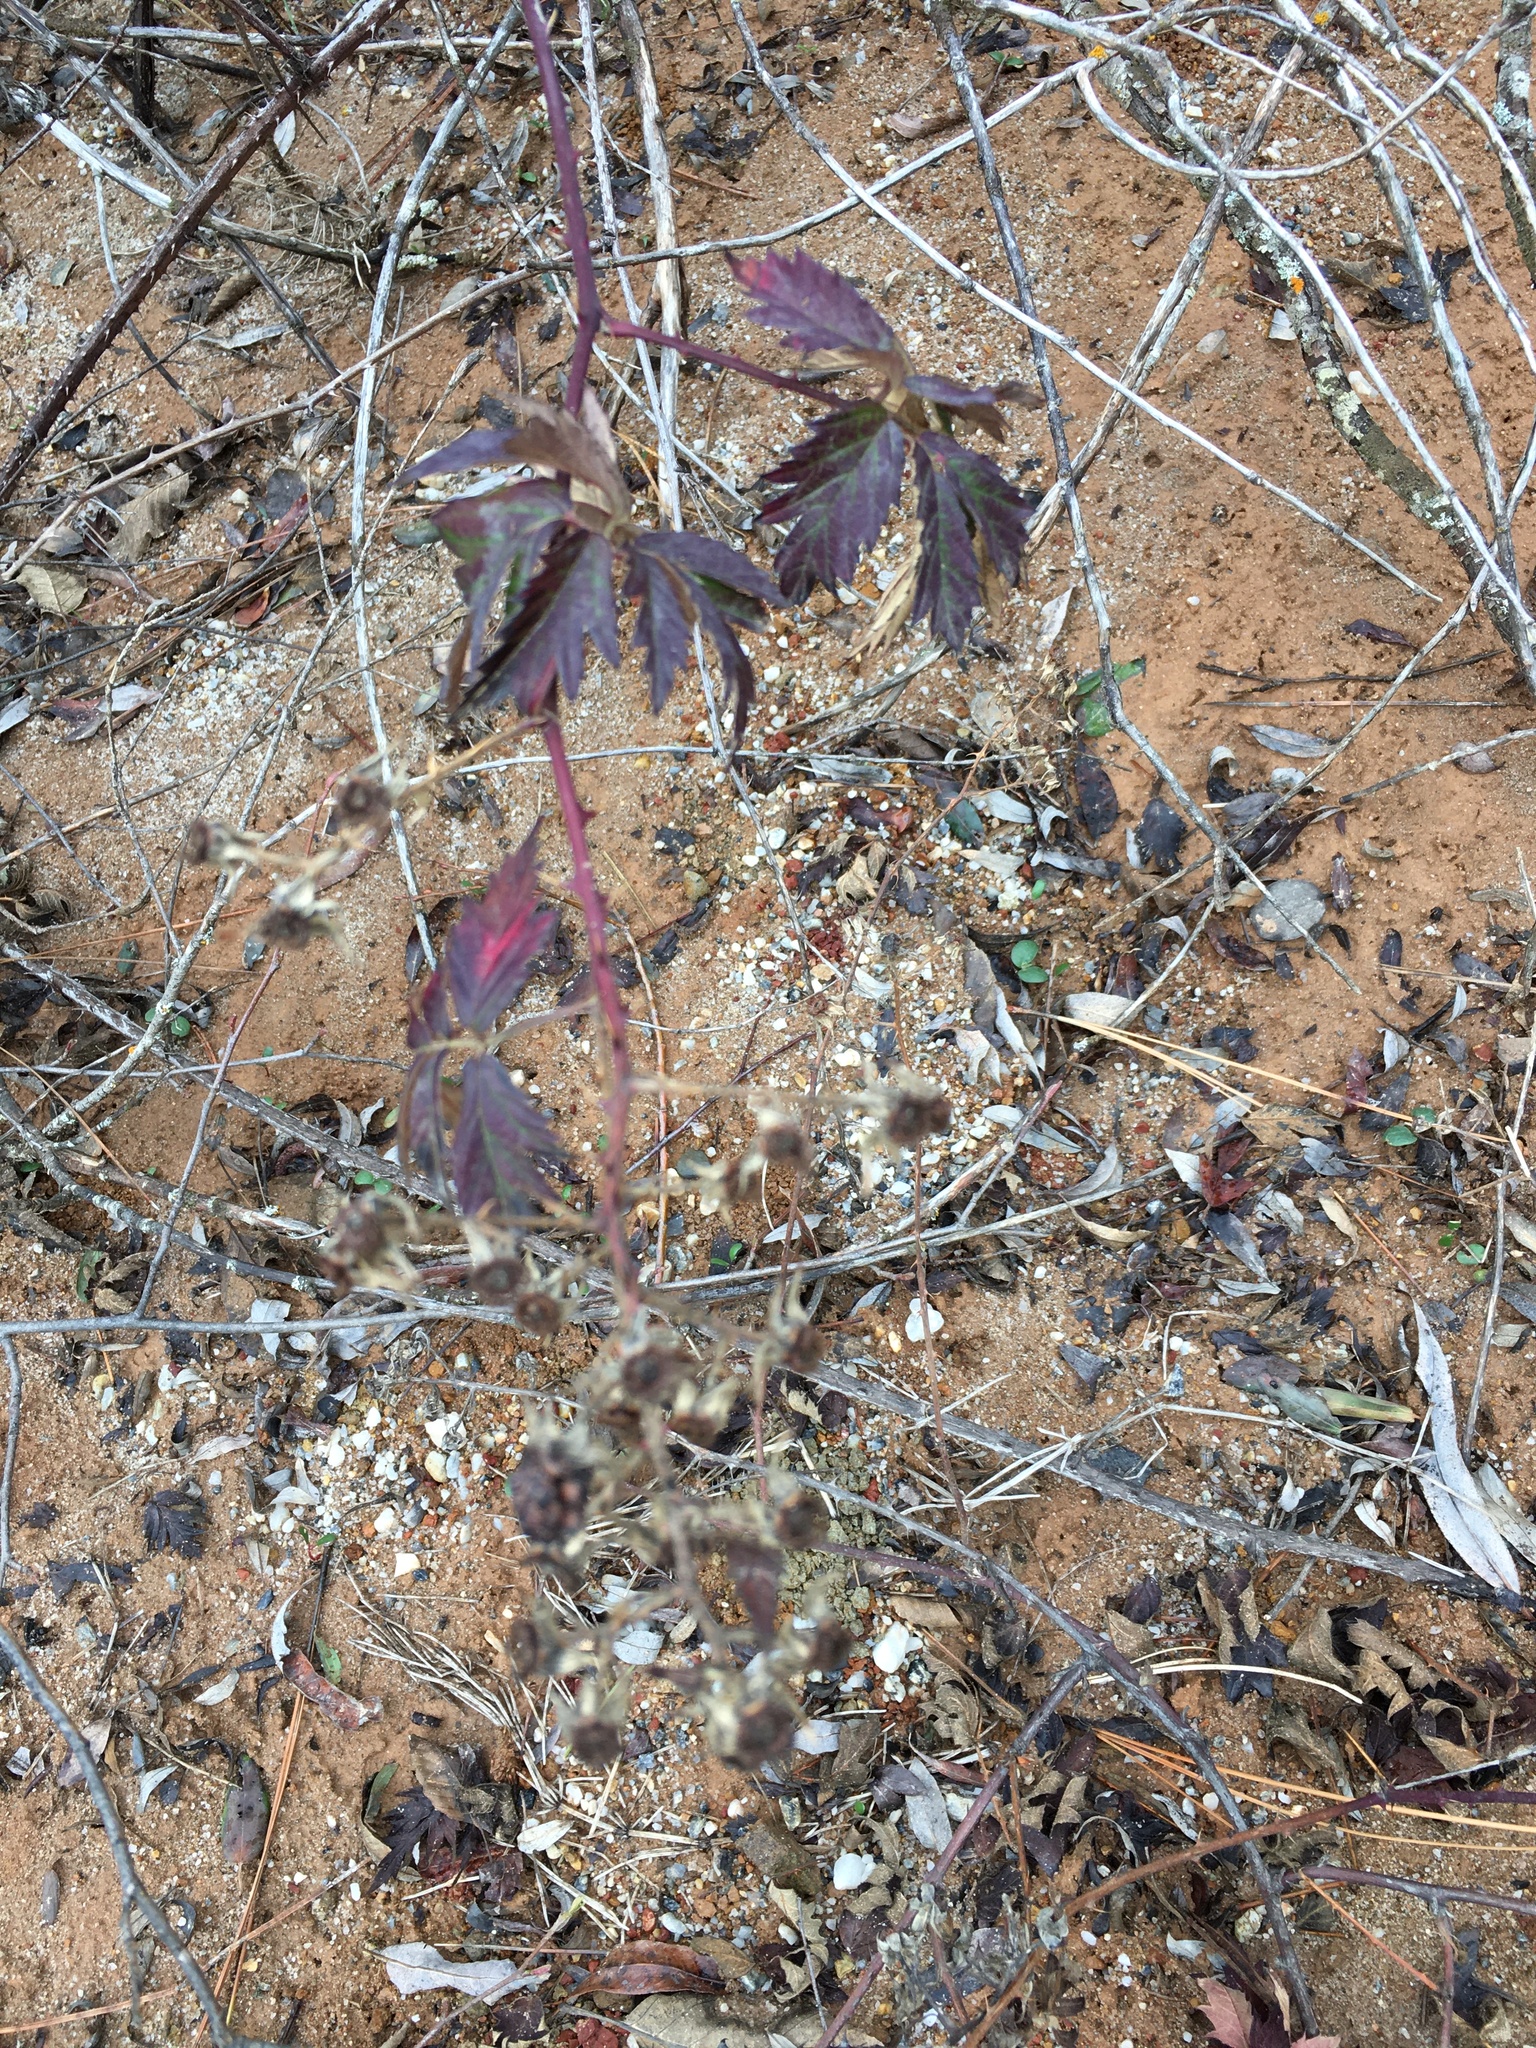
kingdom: Plantae
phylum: Tracheophyta
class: Magnoliopsida
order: Rosales
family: Rosaceae
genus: Rubus
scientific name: Rubus laciniatus
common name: Evergreen blackberry
